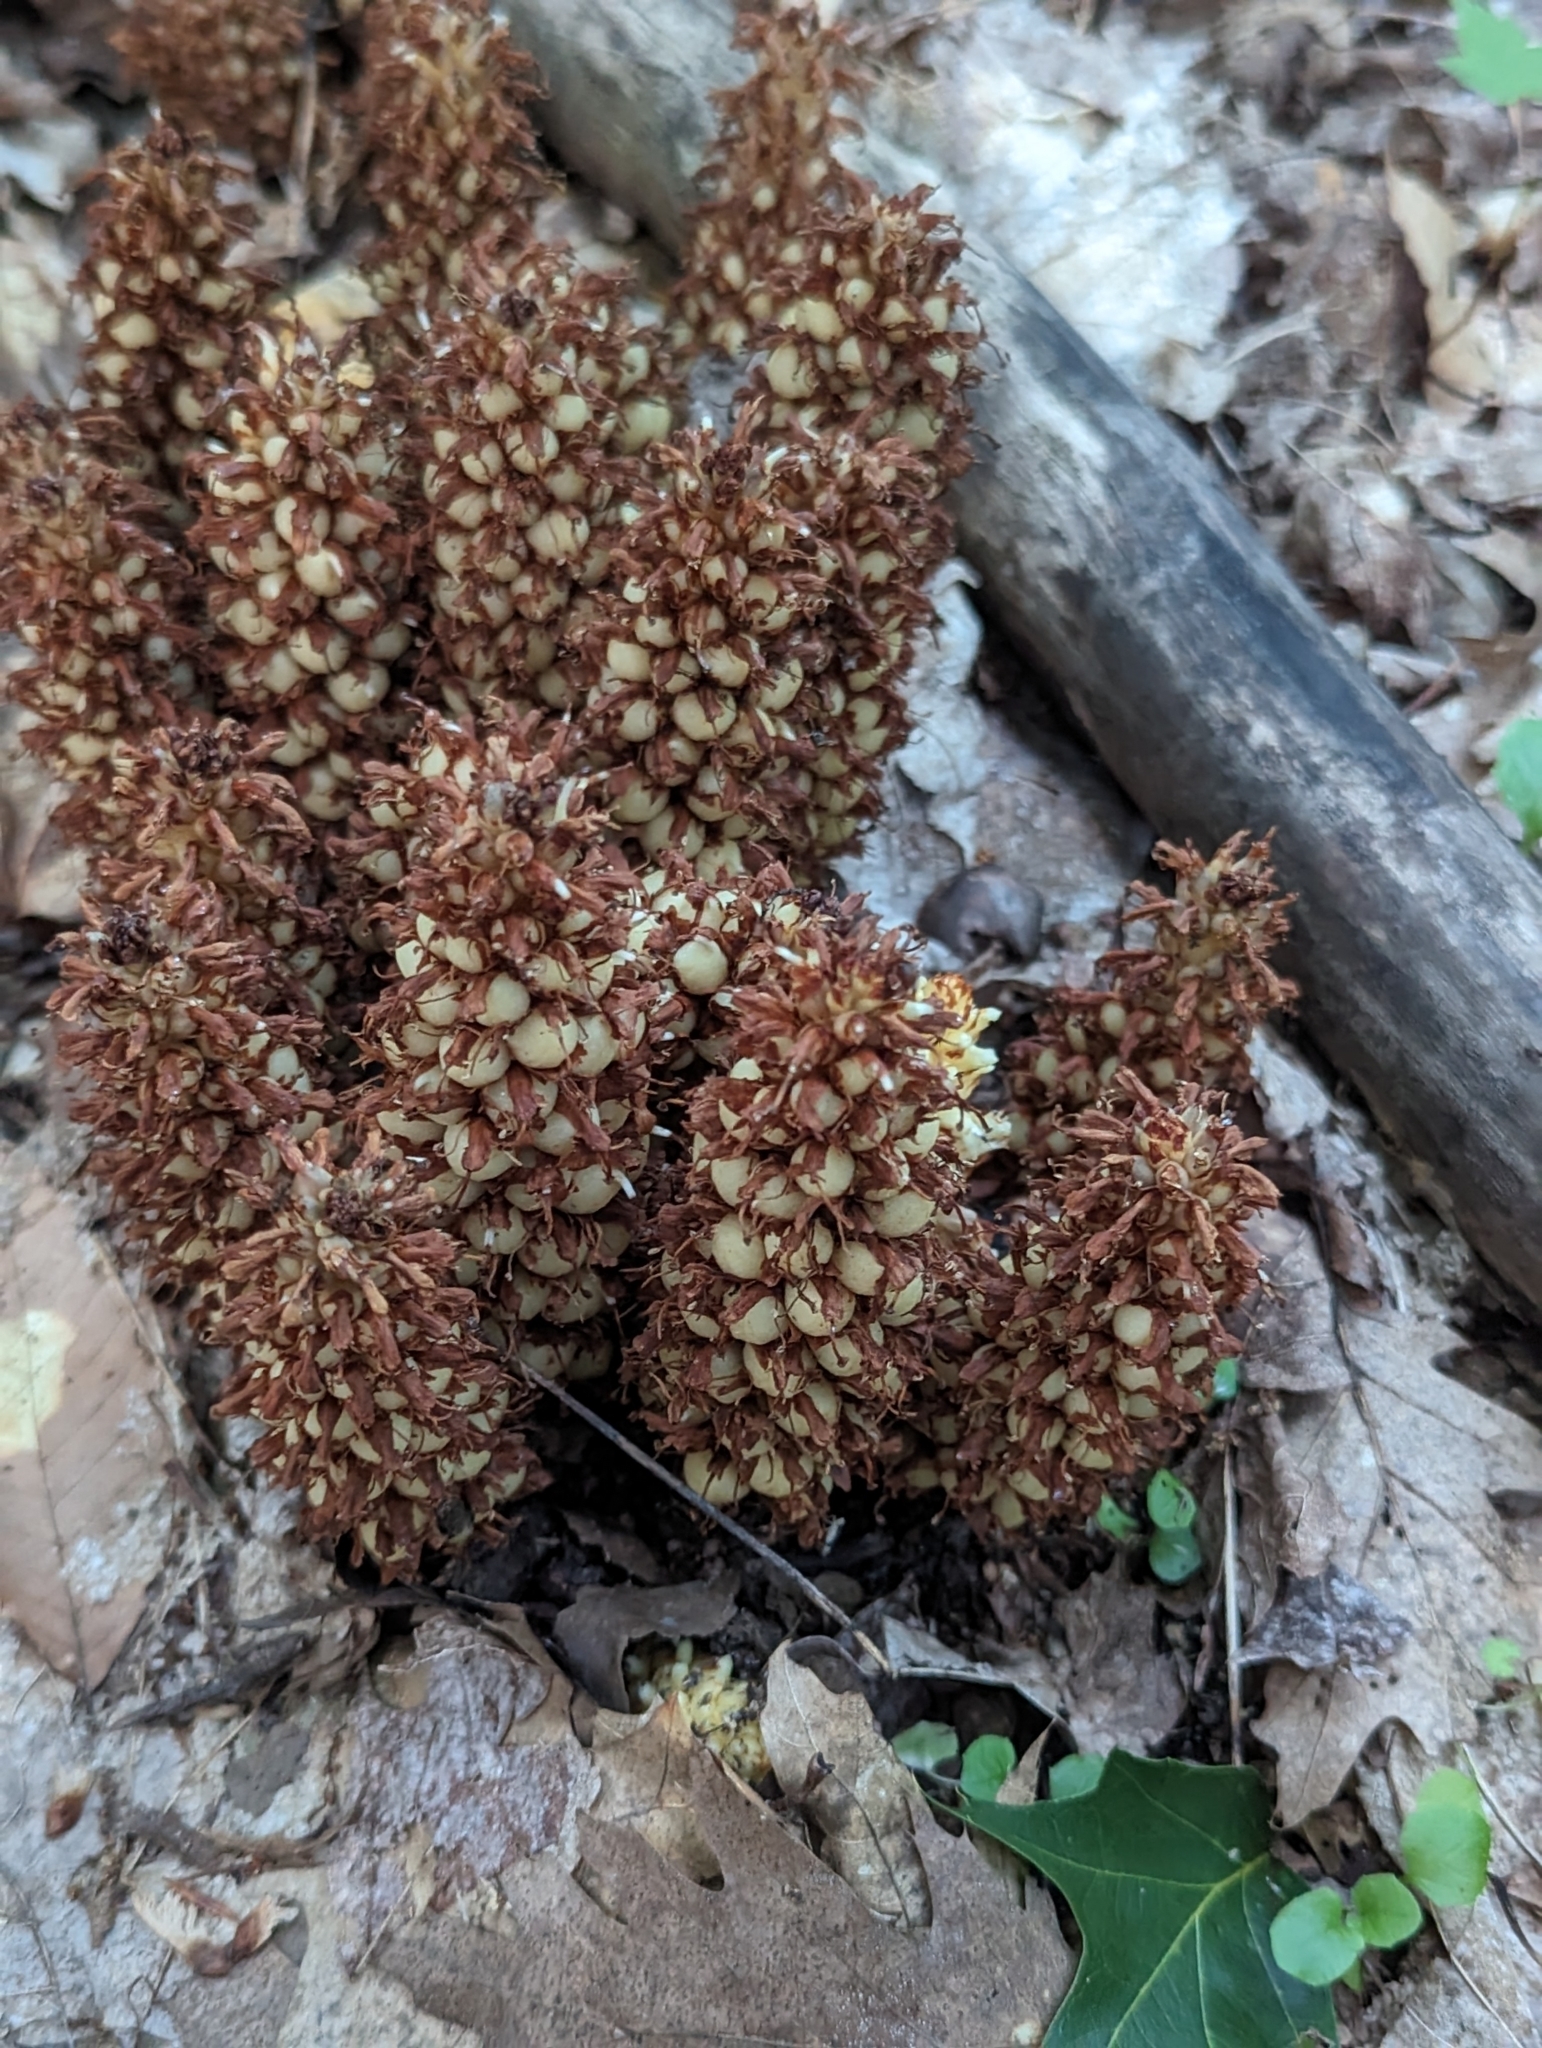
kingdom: Plantae
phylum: Tracheophyta
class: Magnoliopsida
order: Lamiales
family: Orobanchaceae
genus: Conopholis
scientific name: Conopholis americana
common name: American cancer-root
